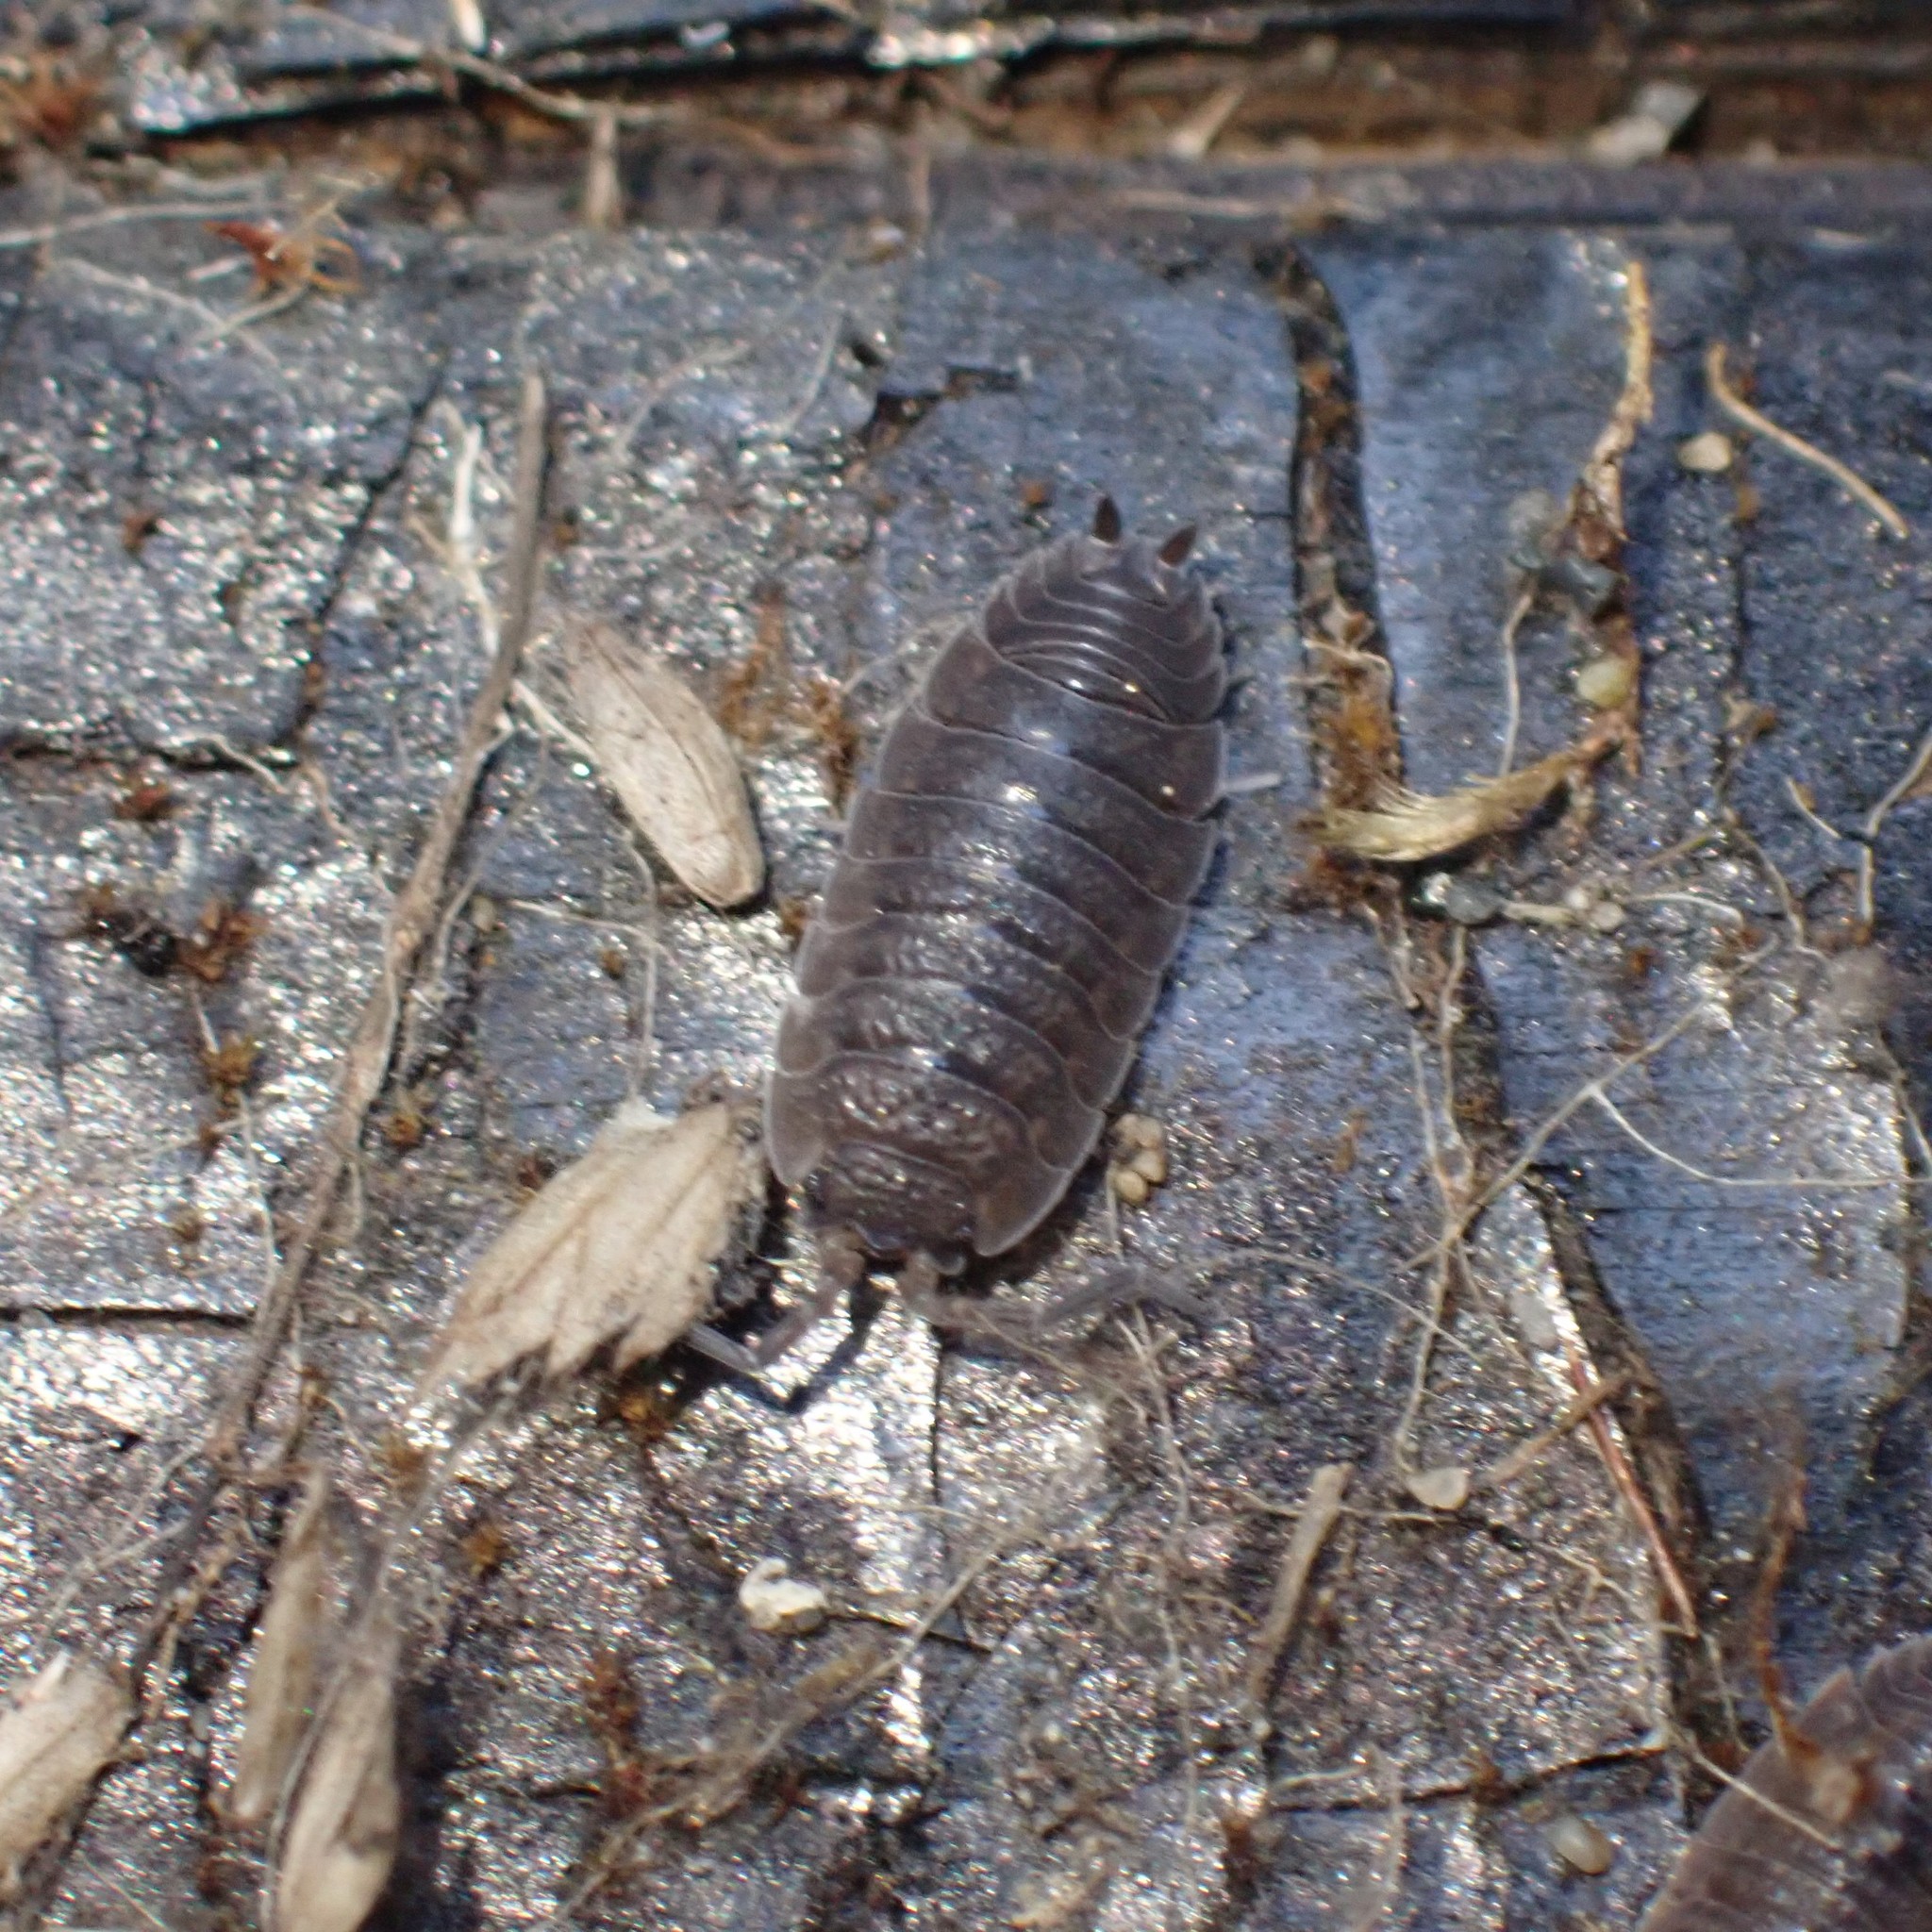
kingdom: Animalia
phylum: Arthropoda
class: Malacostraca
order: Isopoda
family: Porcellionidae
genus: Porcellio
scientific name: Porcellio scaber
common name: Common rough woodlouse
